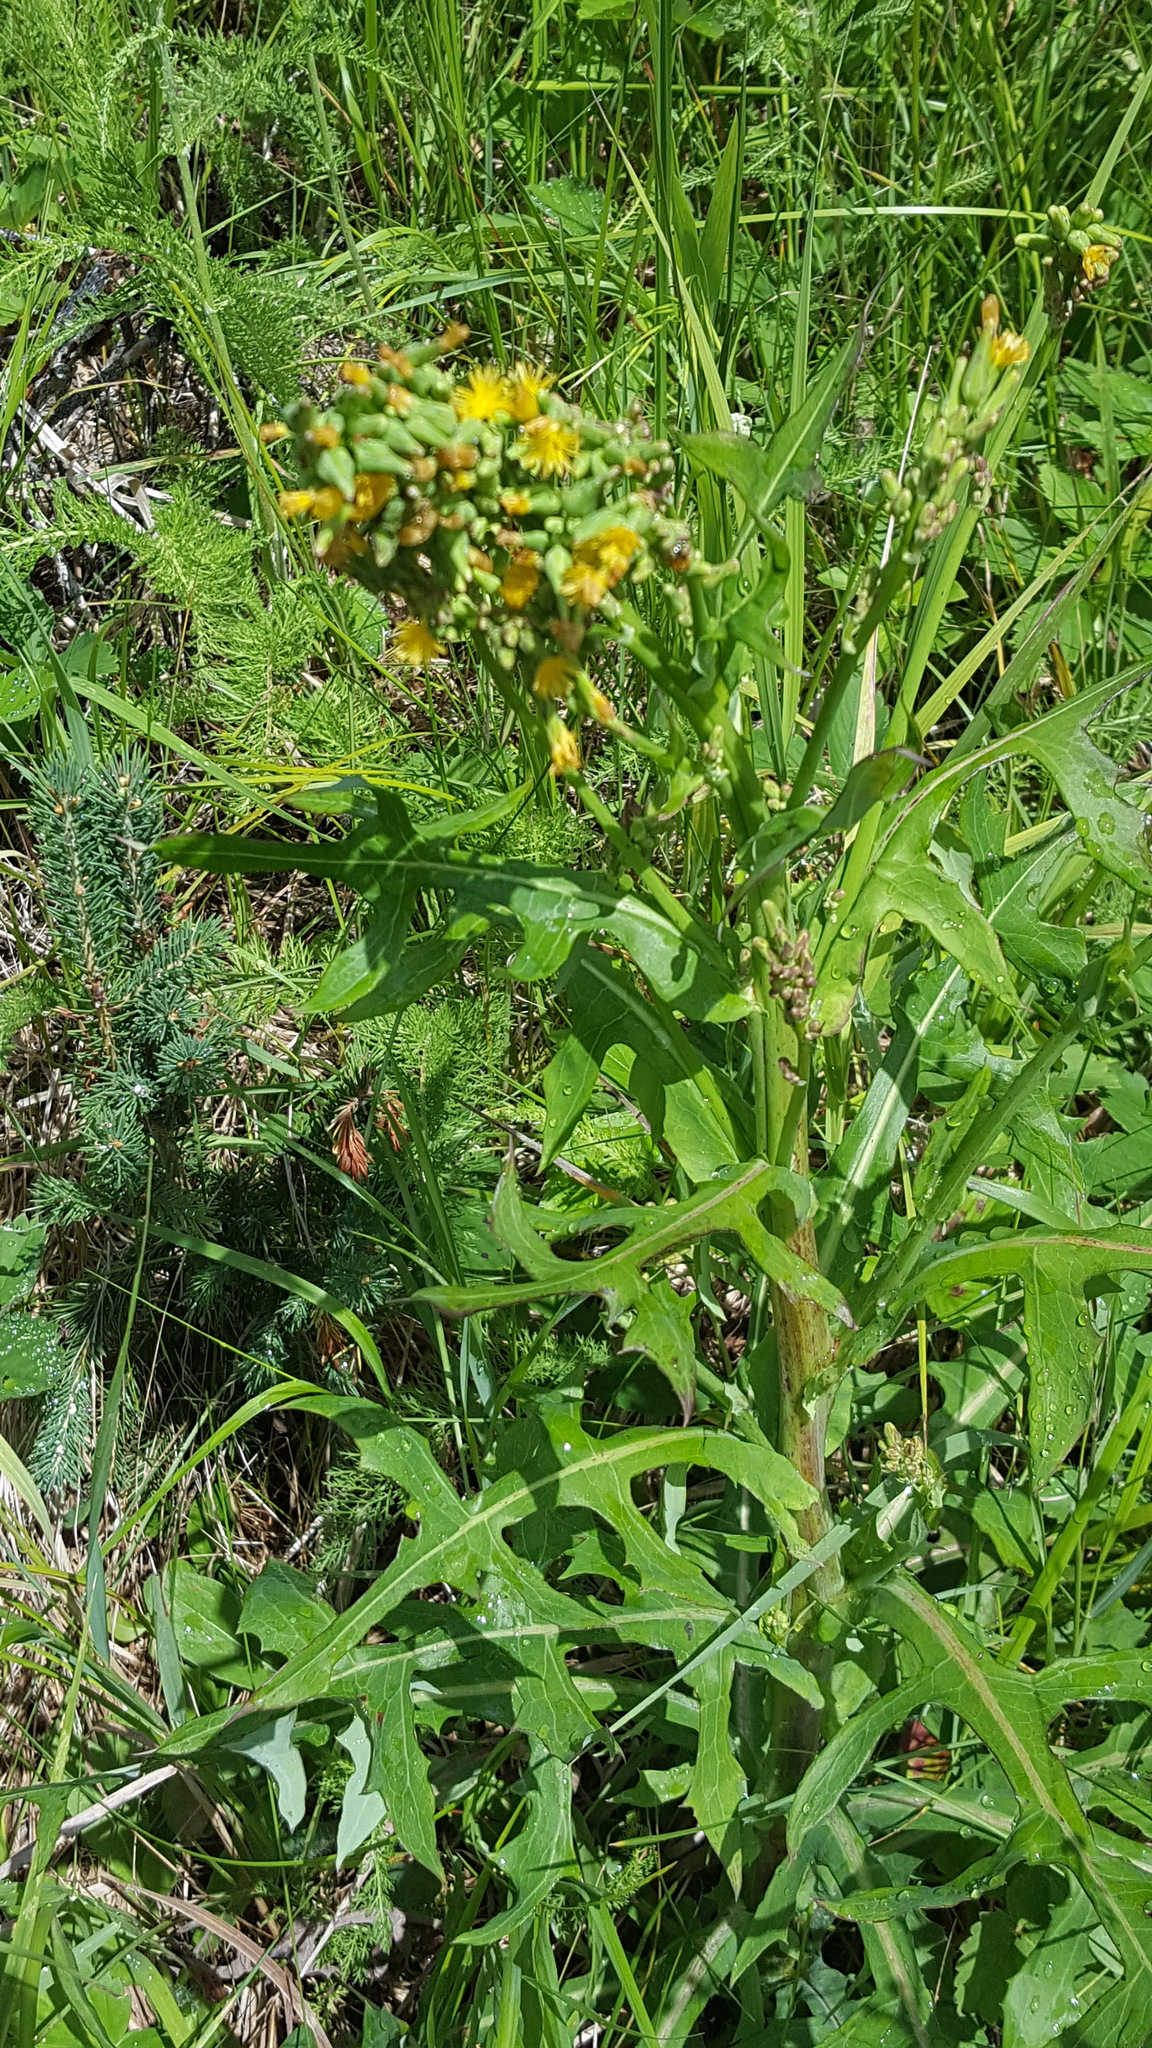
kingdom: Plantae
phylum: Tracheophyta
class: Magnoliopsida
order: Asterales
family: Asteraceae
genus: Lactuca
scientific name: Lactuca canadensis
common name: Canada lettuce
